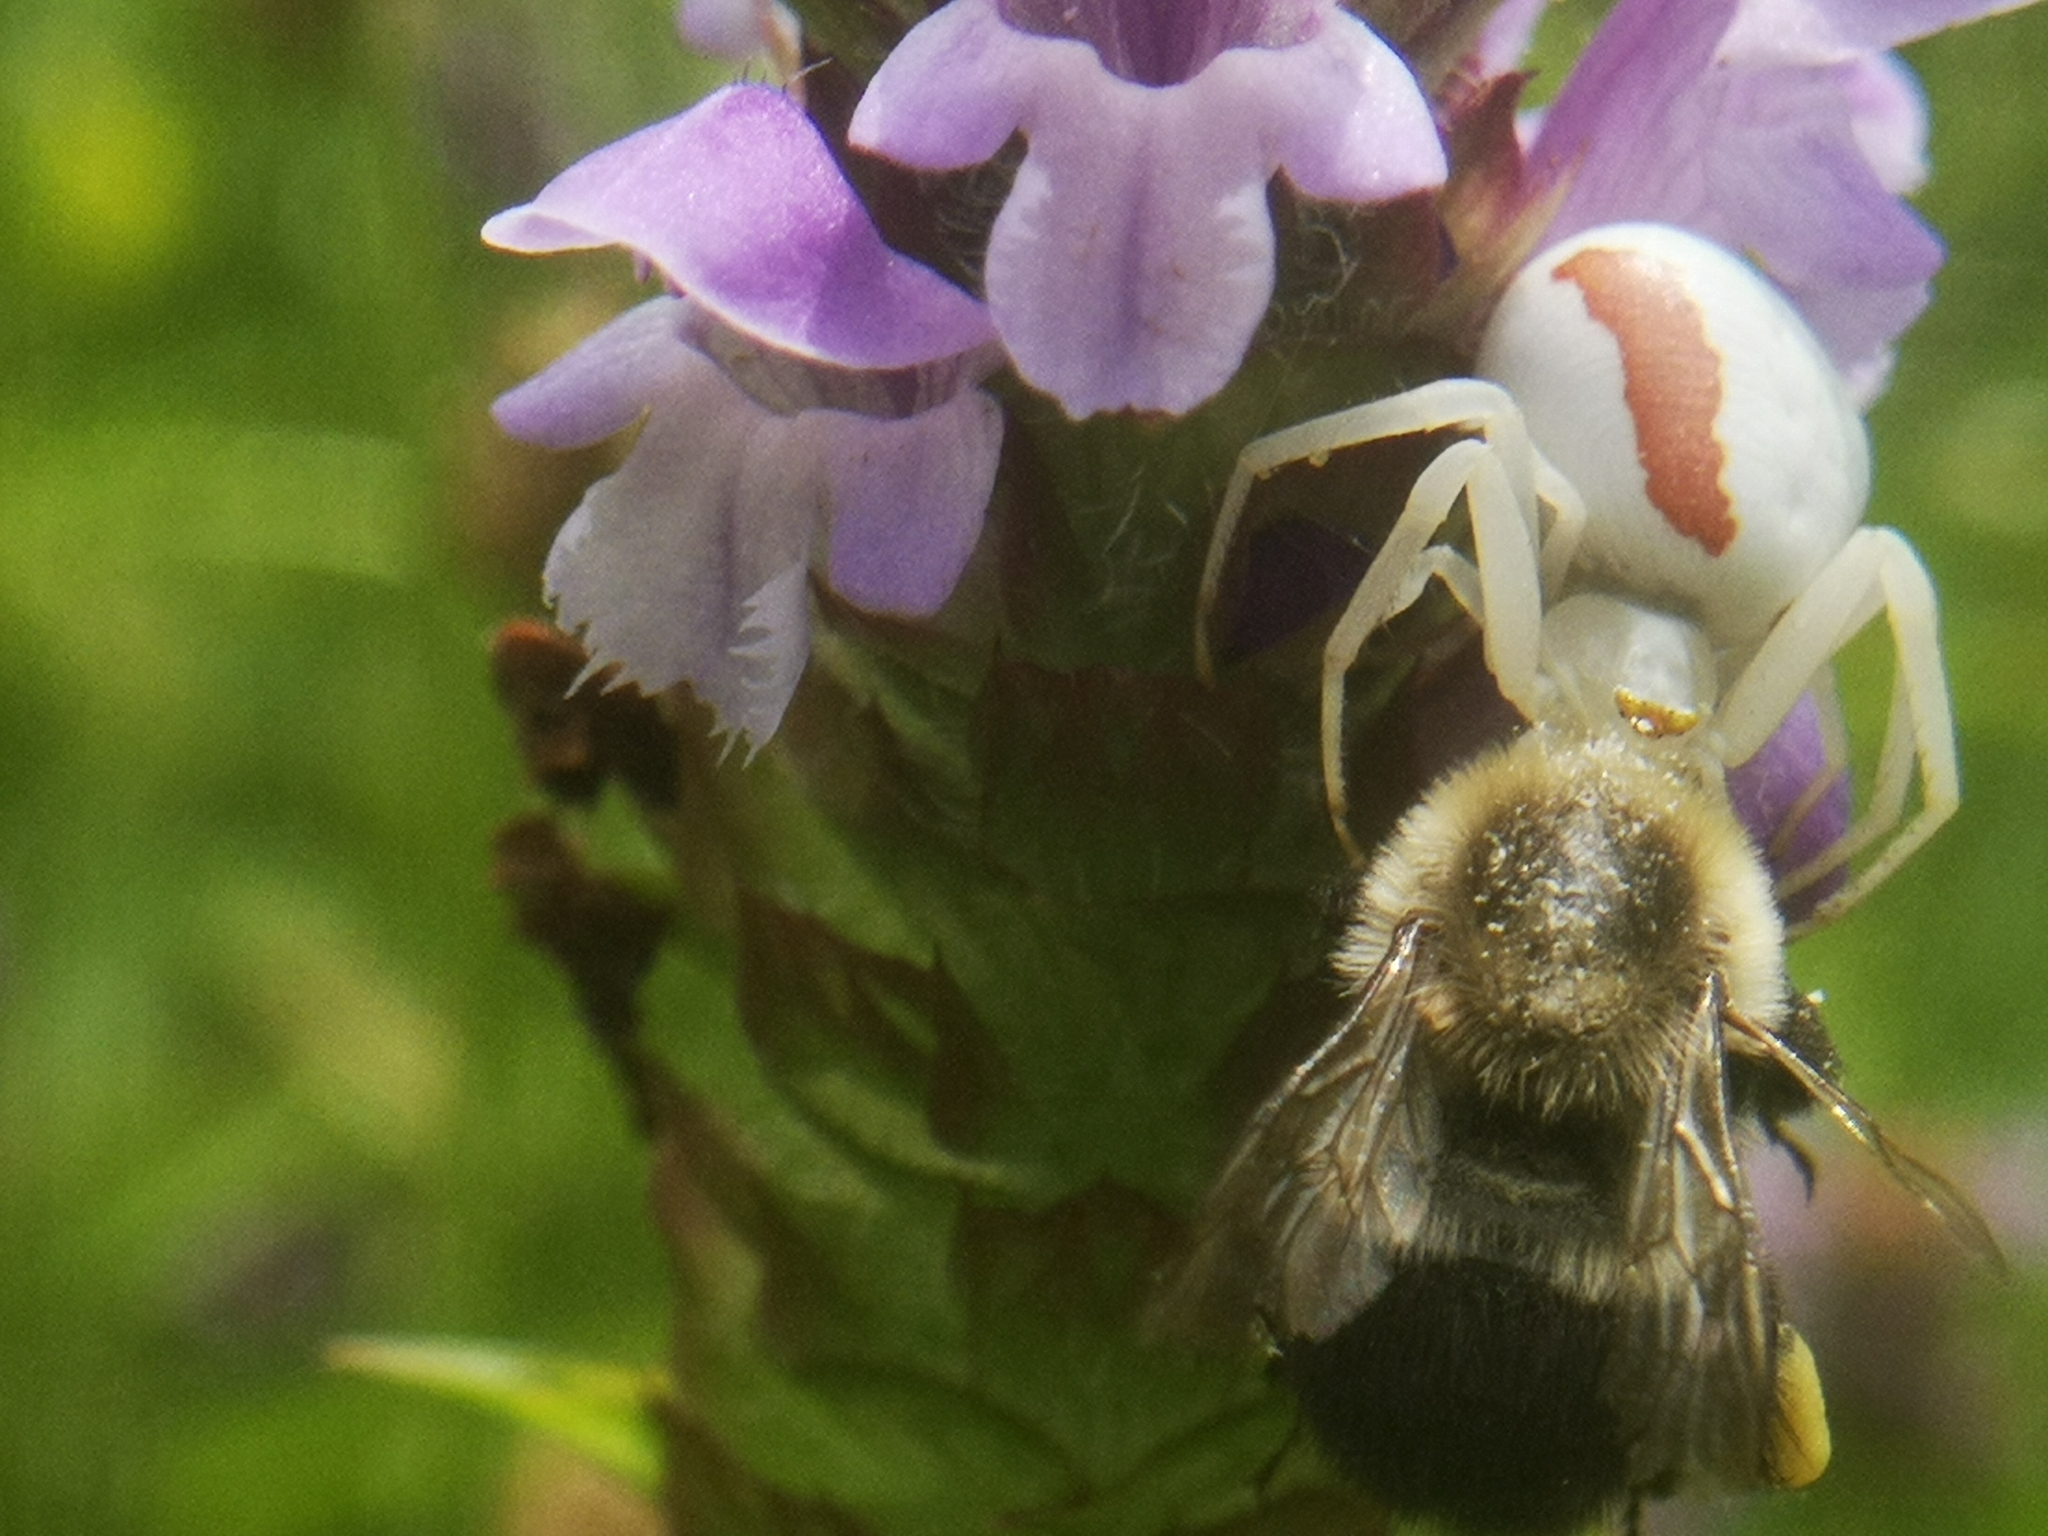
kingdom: Animalia
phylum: Arthropoda
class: Insecta
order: Hymenoptera
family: Apidae
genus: Bombus
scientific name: Bombus impatiens
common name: Common eastern bumble bee
